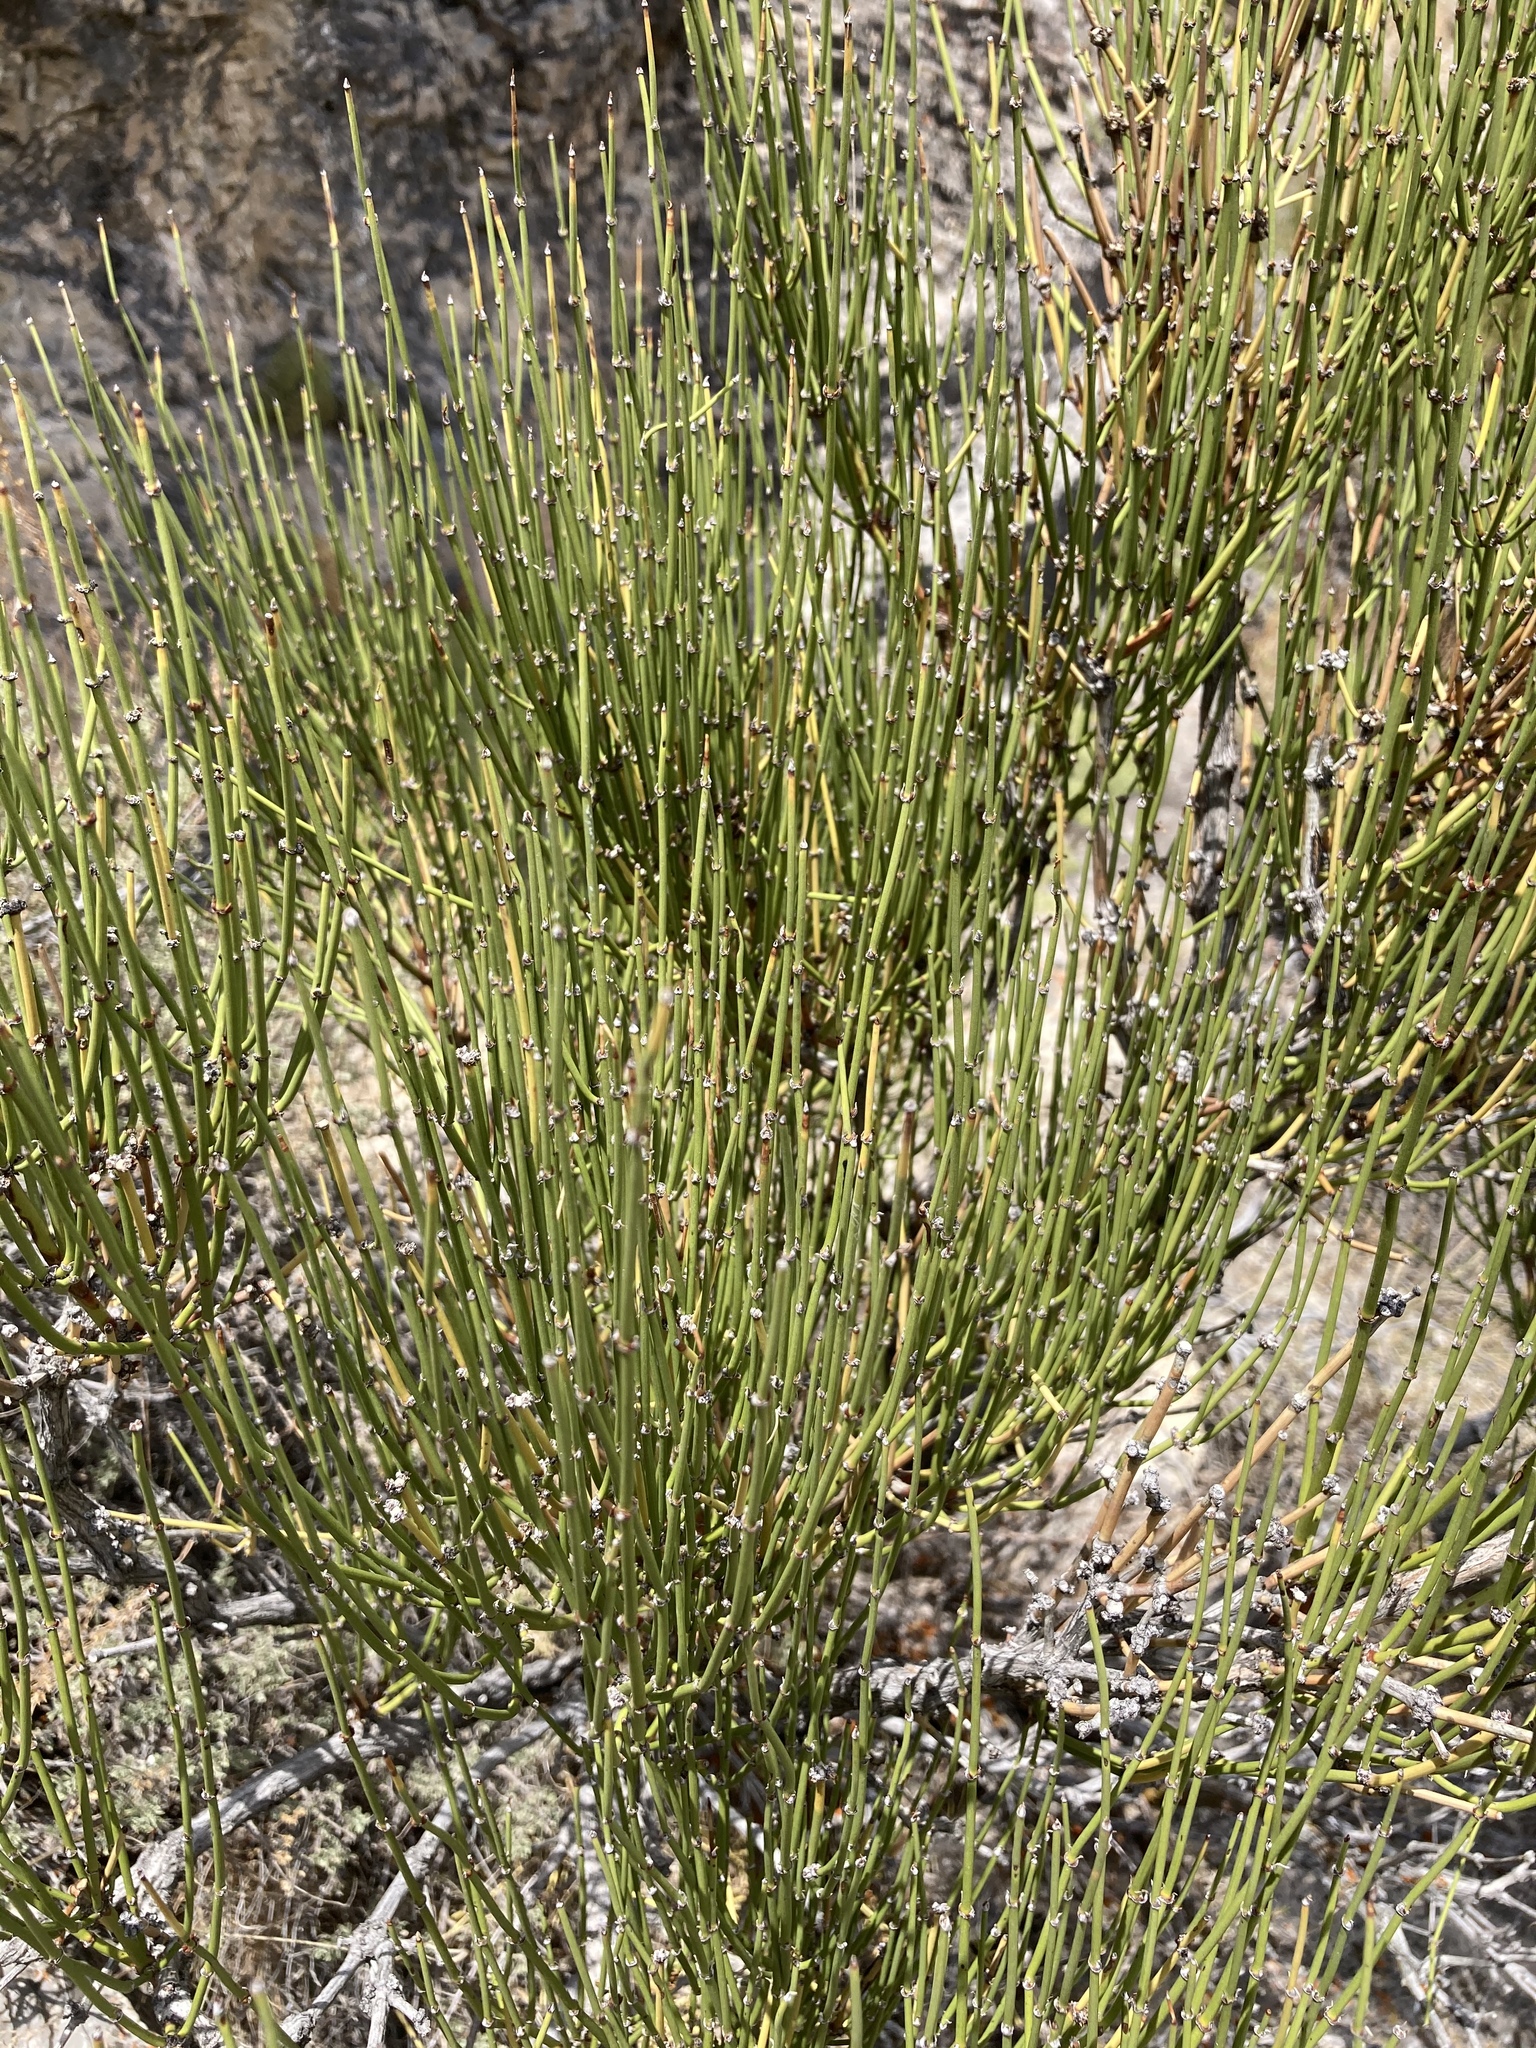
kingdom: Plantae
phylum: Tracheophyta
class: Gnetopsida
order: Ephedrales
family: Ephedraceae
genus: Ephedra
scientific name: Ephedra viridis
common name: Green ephedra
